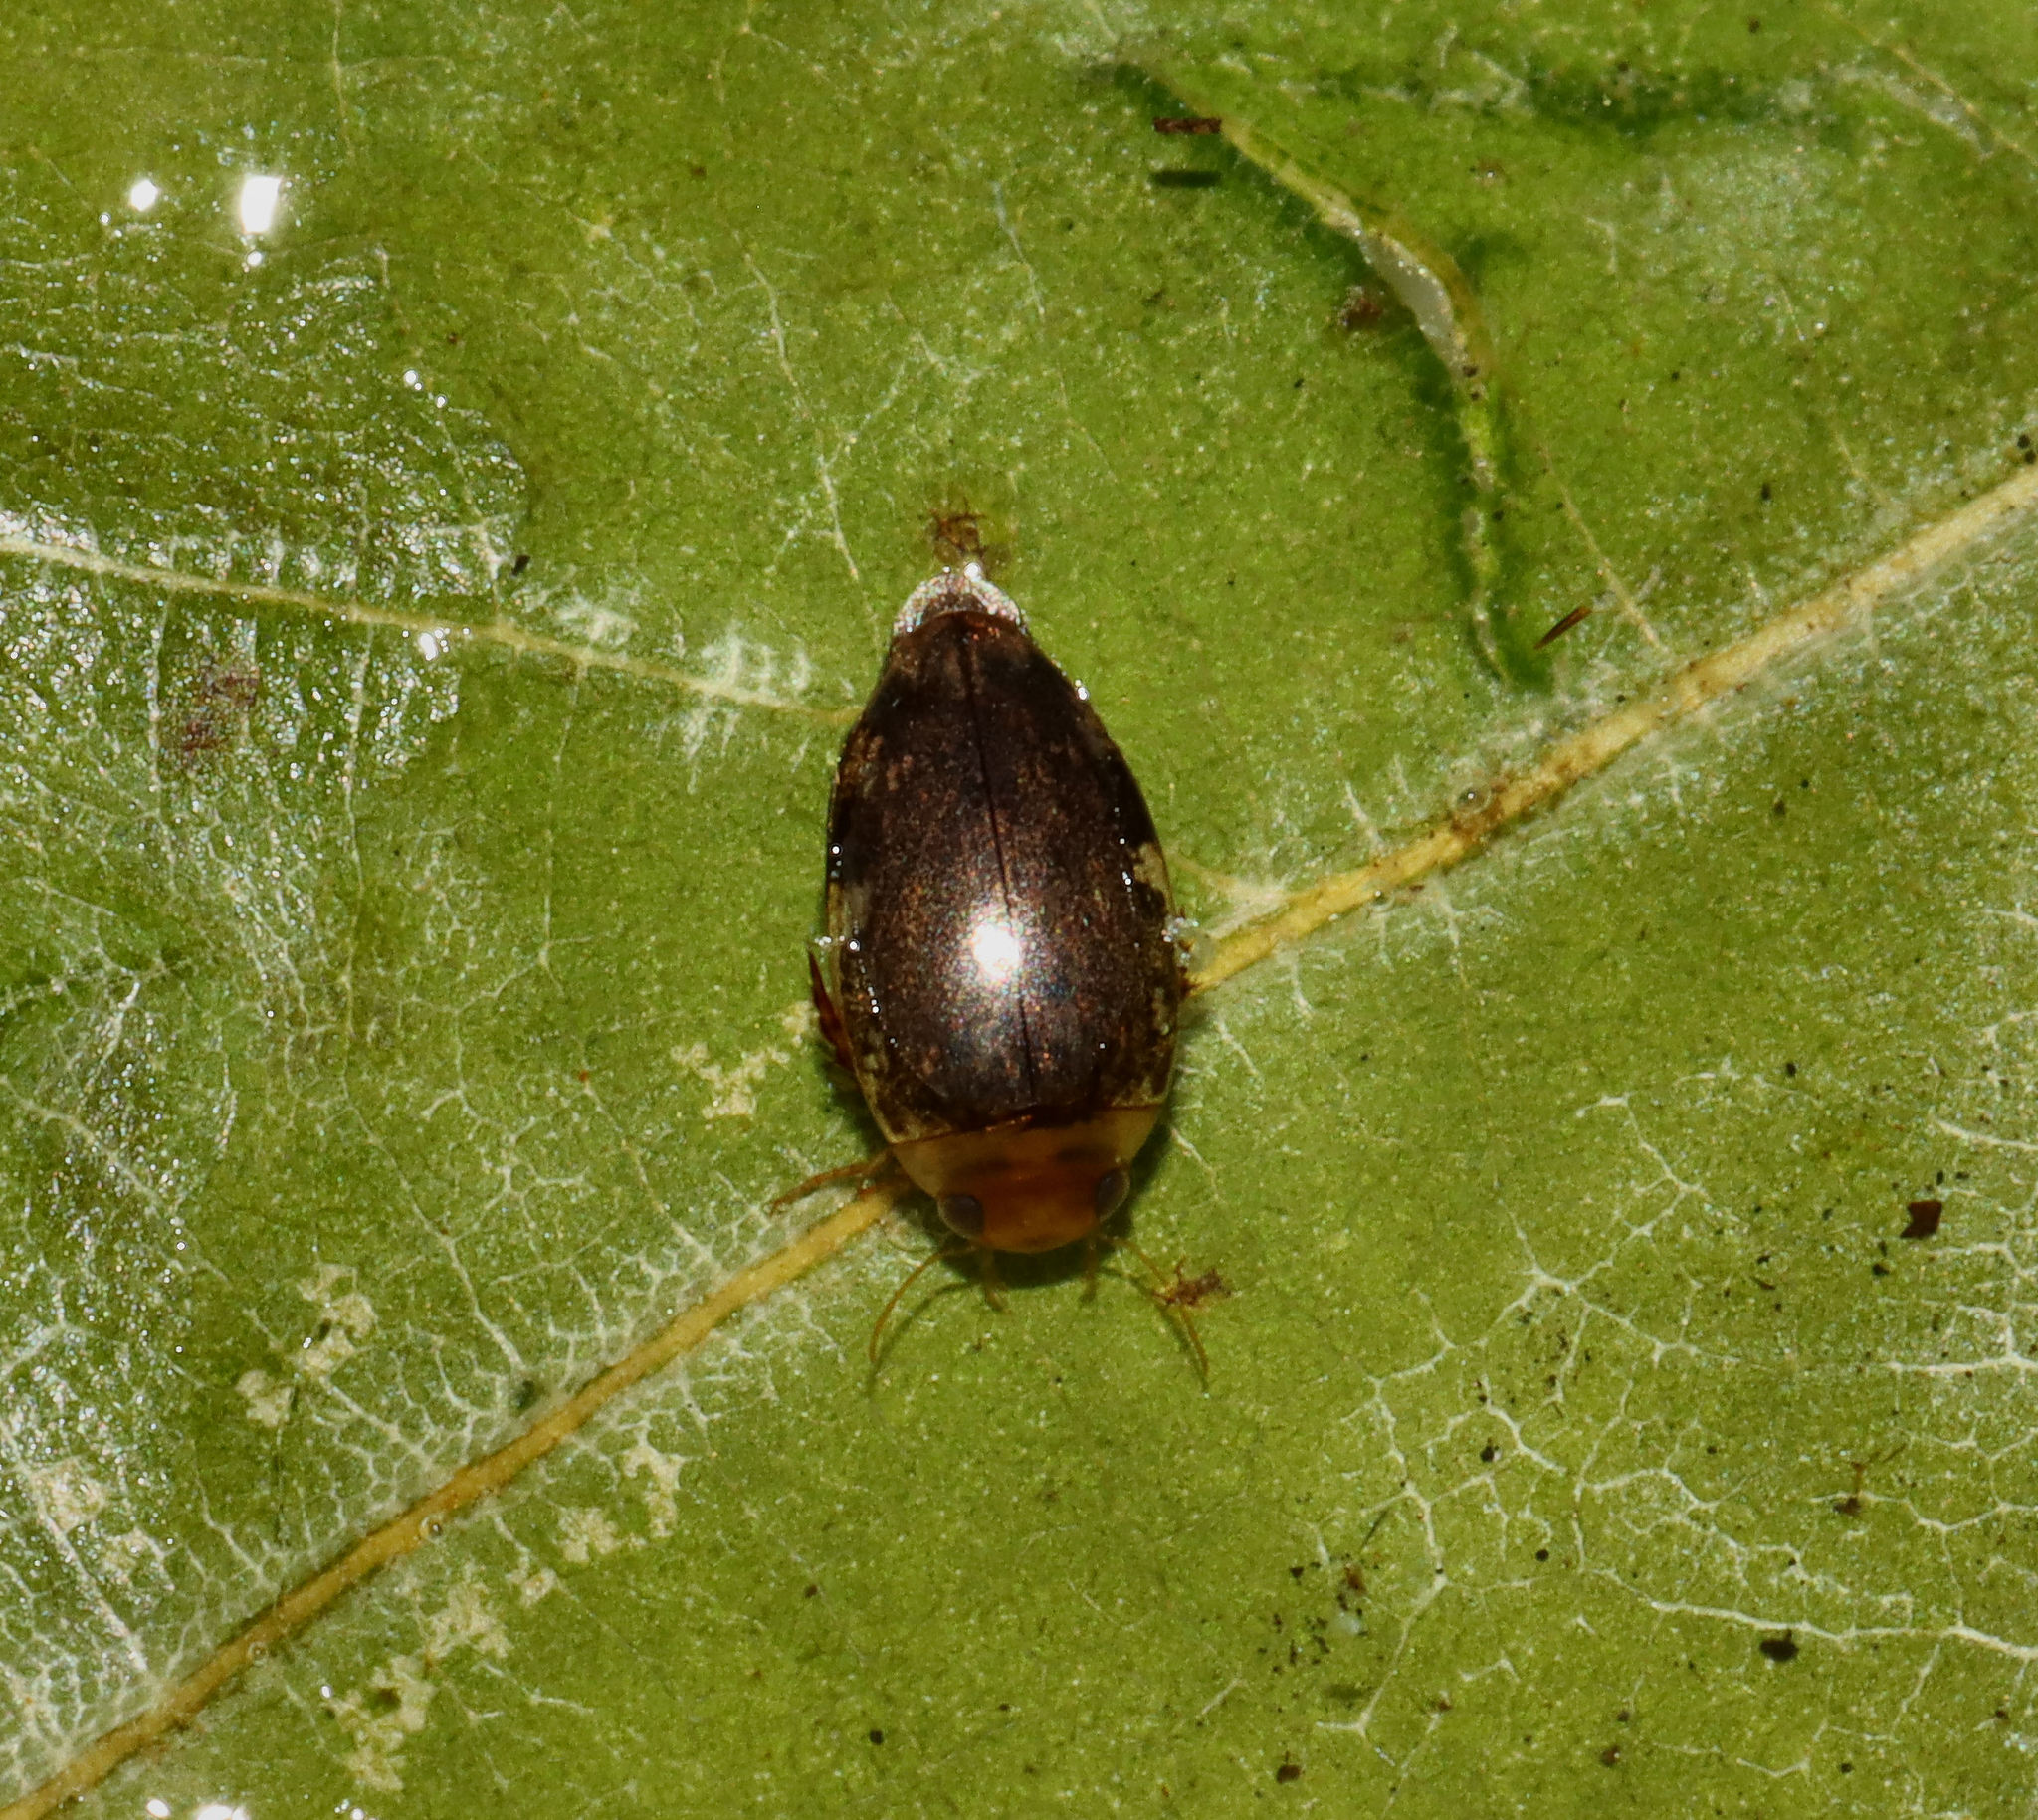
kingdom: Animalia
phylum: Arthropoda
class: Insecta
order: Coleoptera
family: Dytiscidae
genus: Laccophilus
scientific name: Laccophilus proximus
